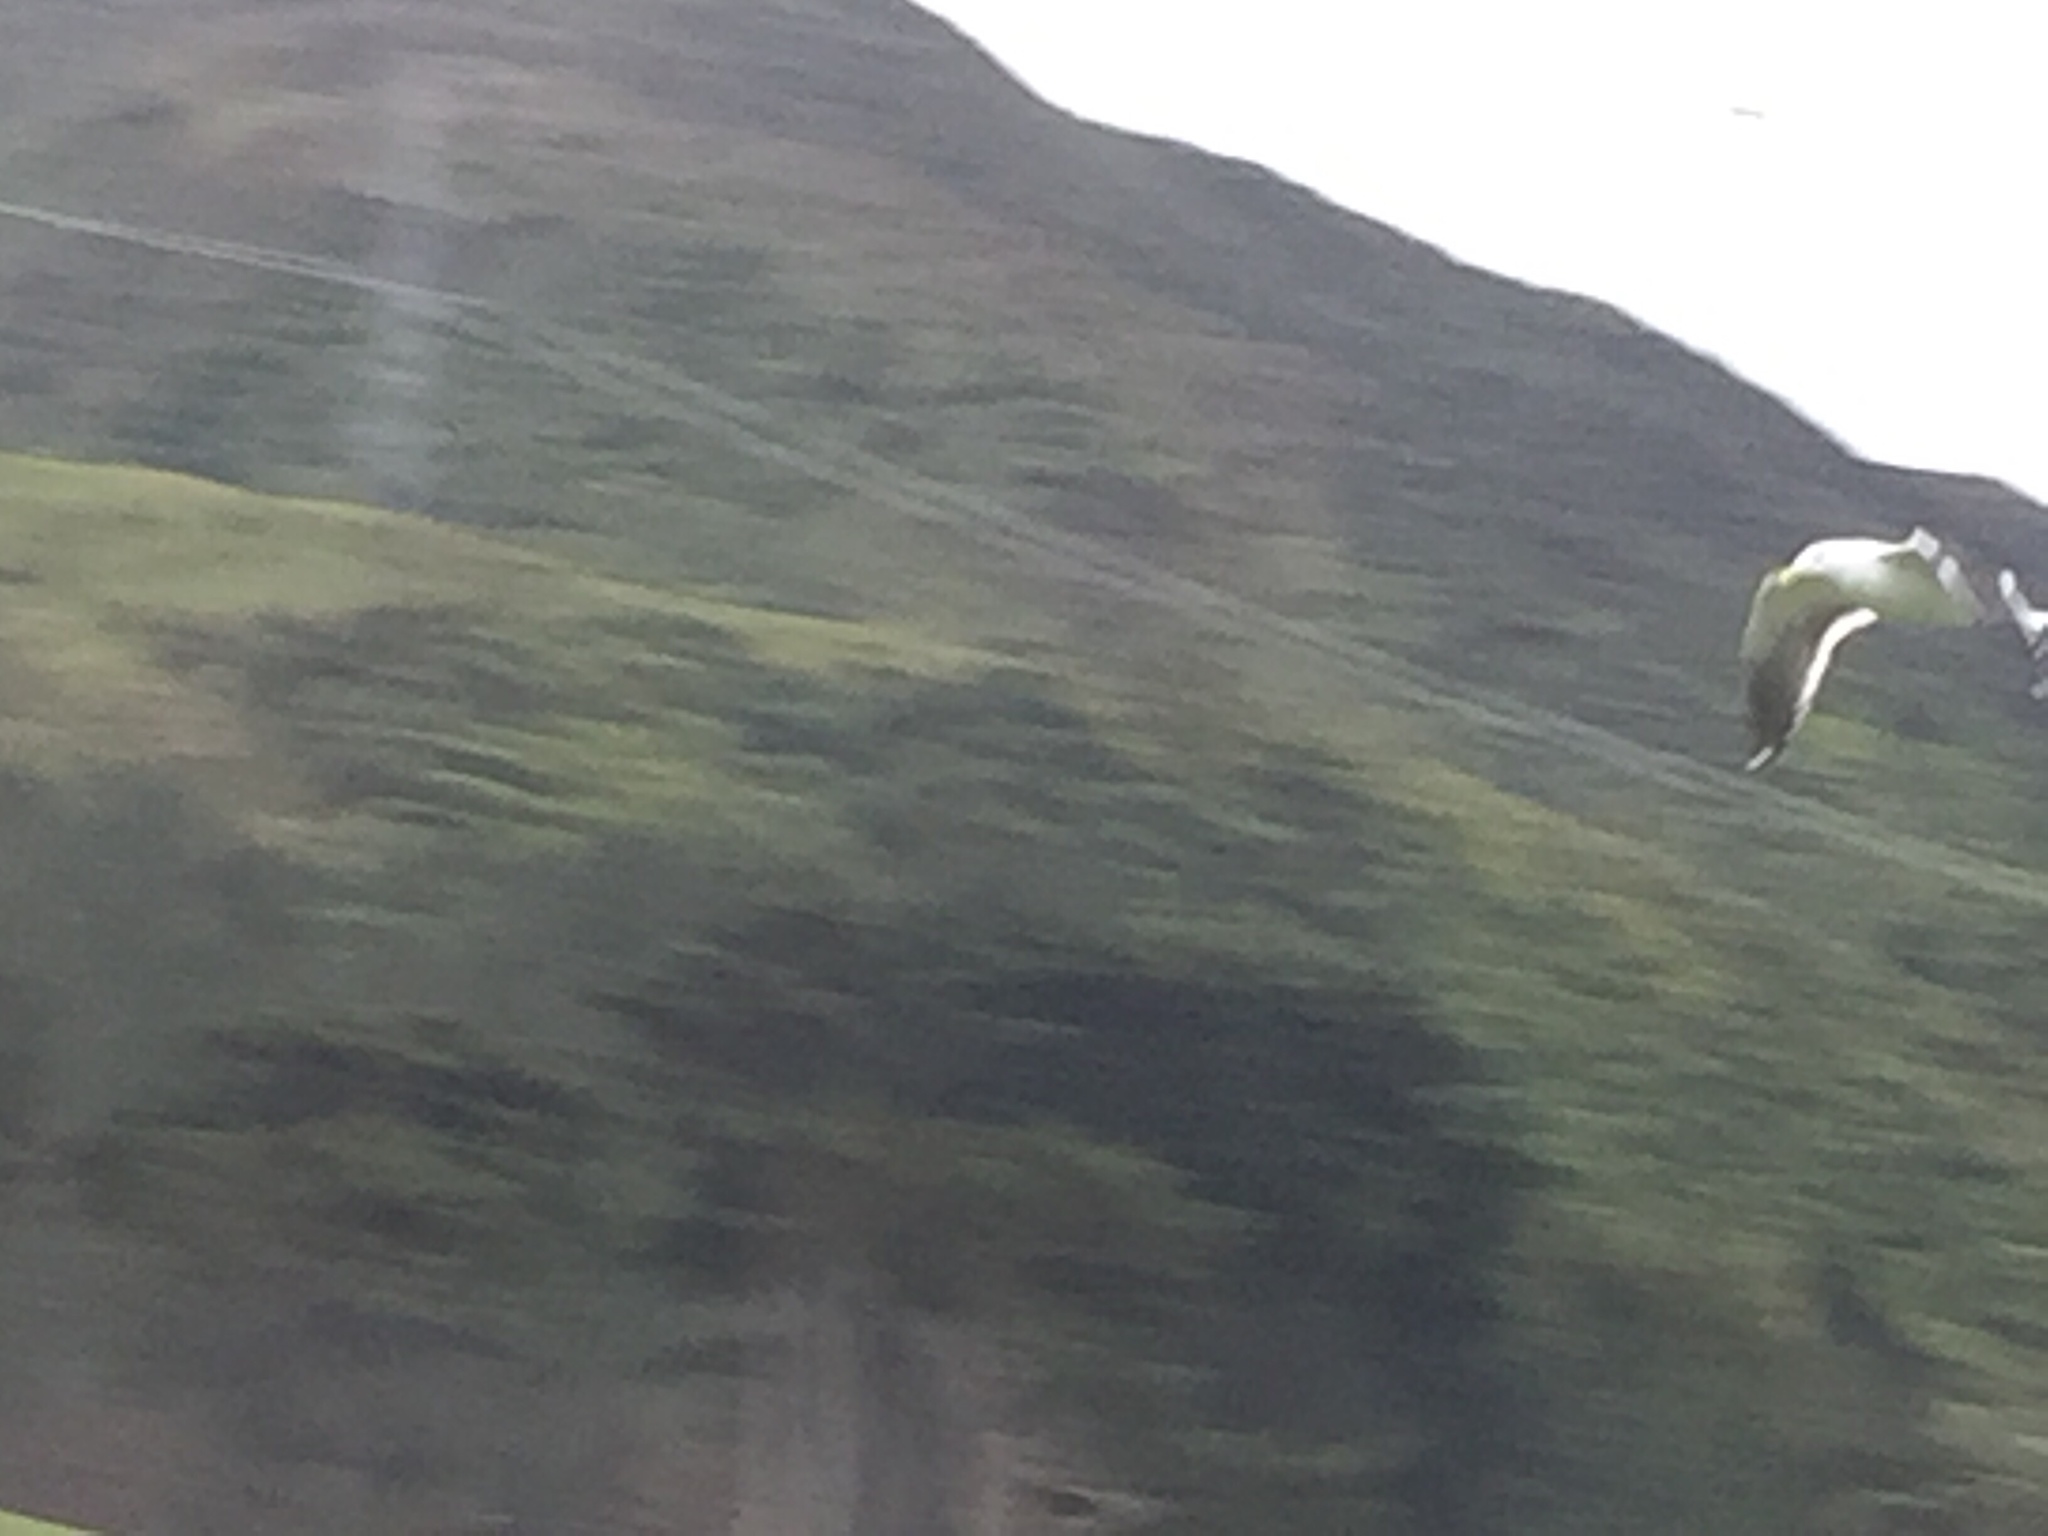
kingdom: Animalia
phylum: Chordata
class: Aves
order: Charadriiformes
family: Laridae
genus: Larus
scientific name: Larus dominicanus
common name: Kelp gull
